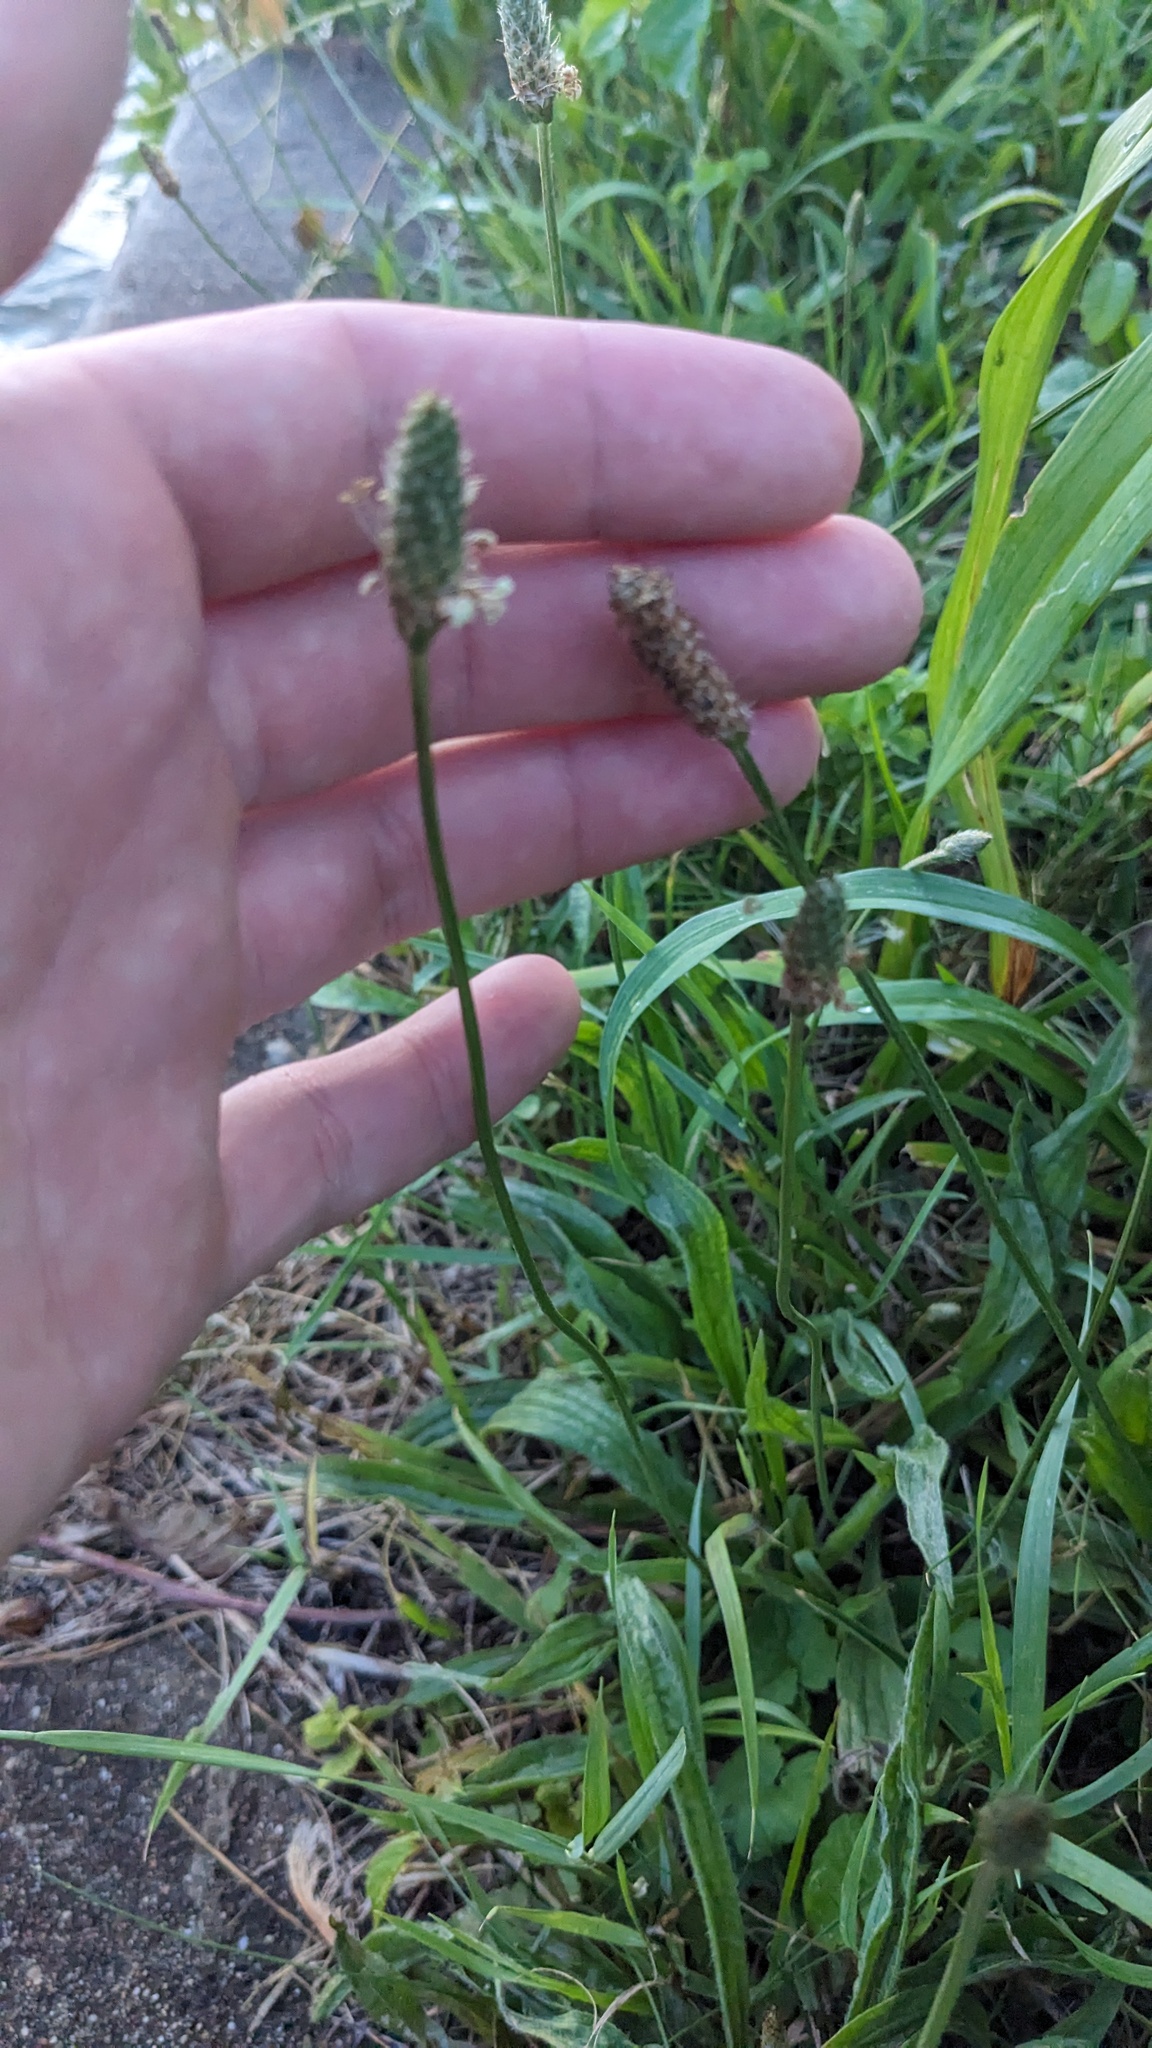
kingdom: Plantae
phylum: Tracheophyta
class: Magnoliopsida
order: Lamiales
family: Plantaginaceae
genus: Plantago
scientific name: Plantago lanceolata
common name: Ribwort plantain
